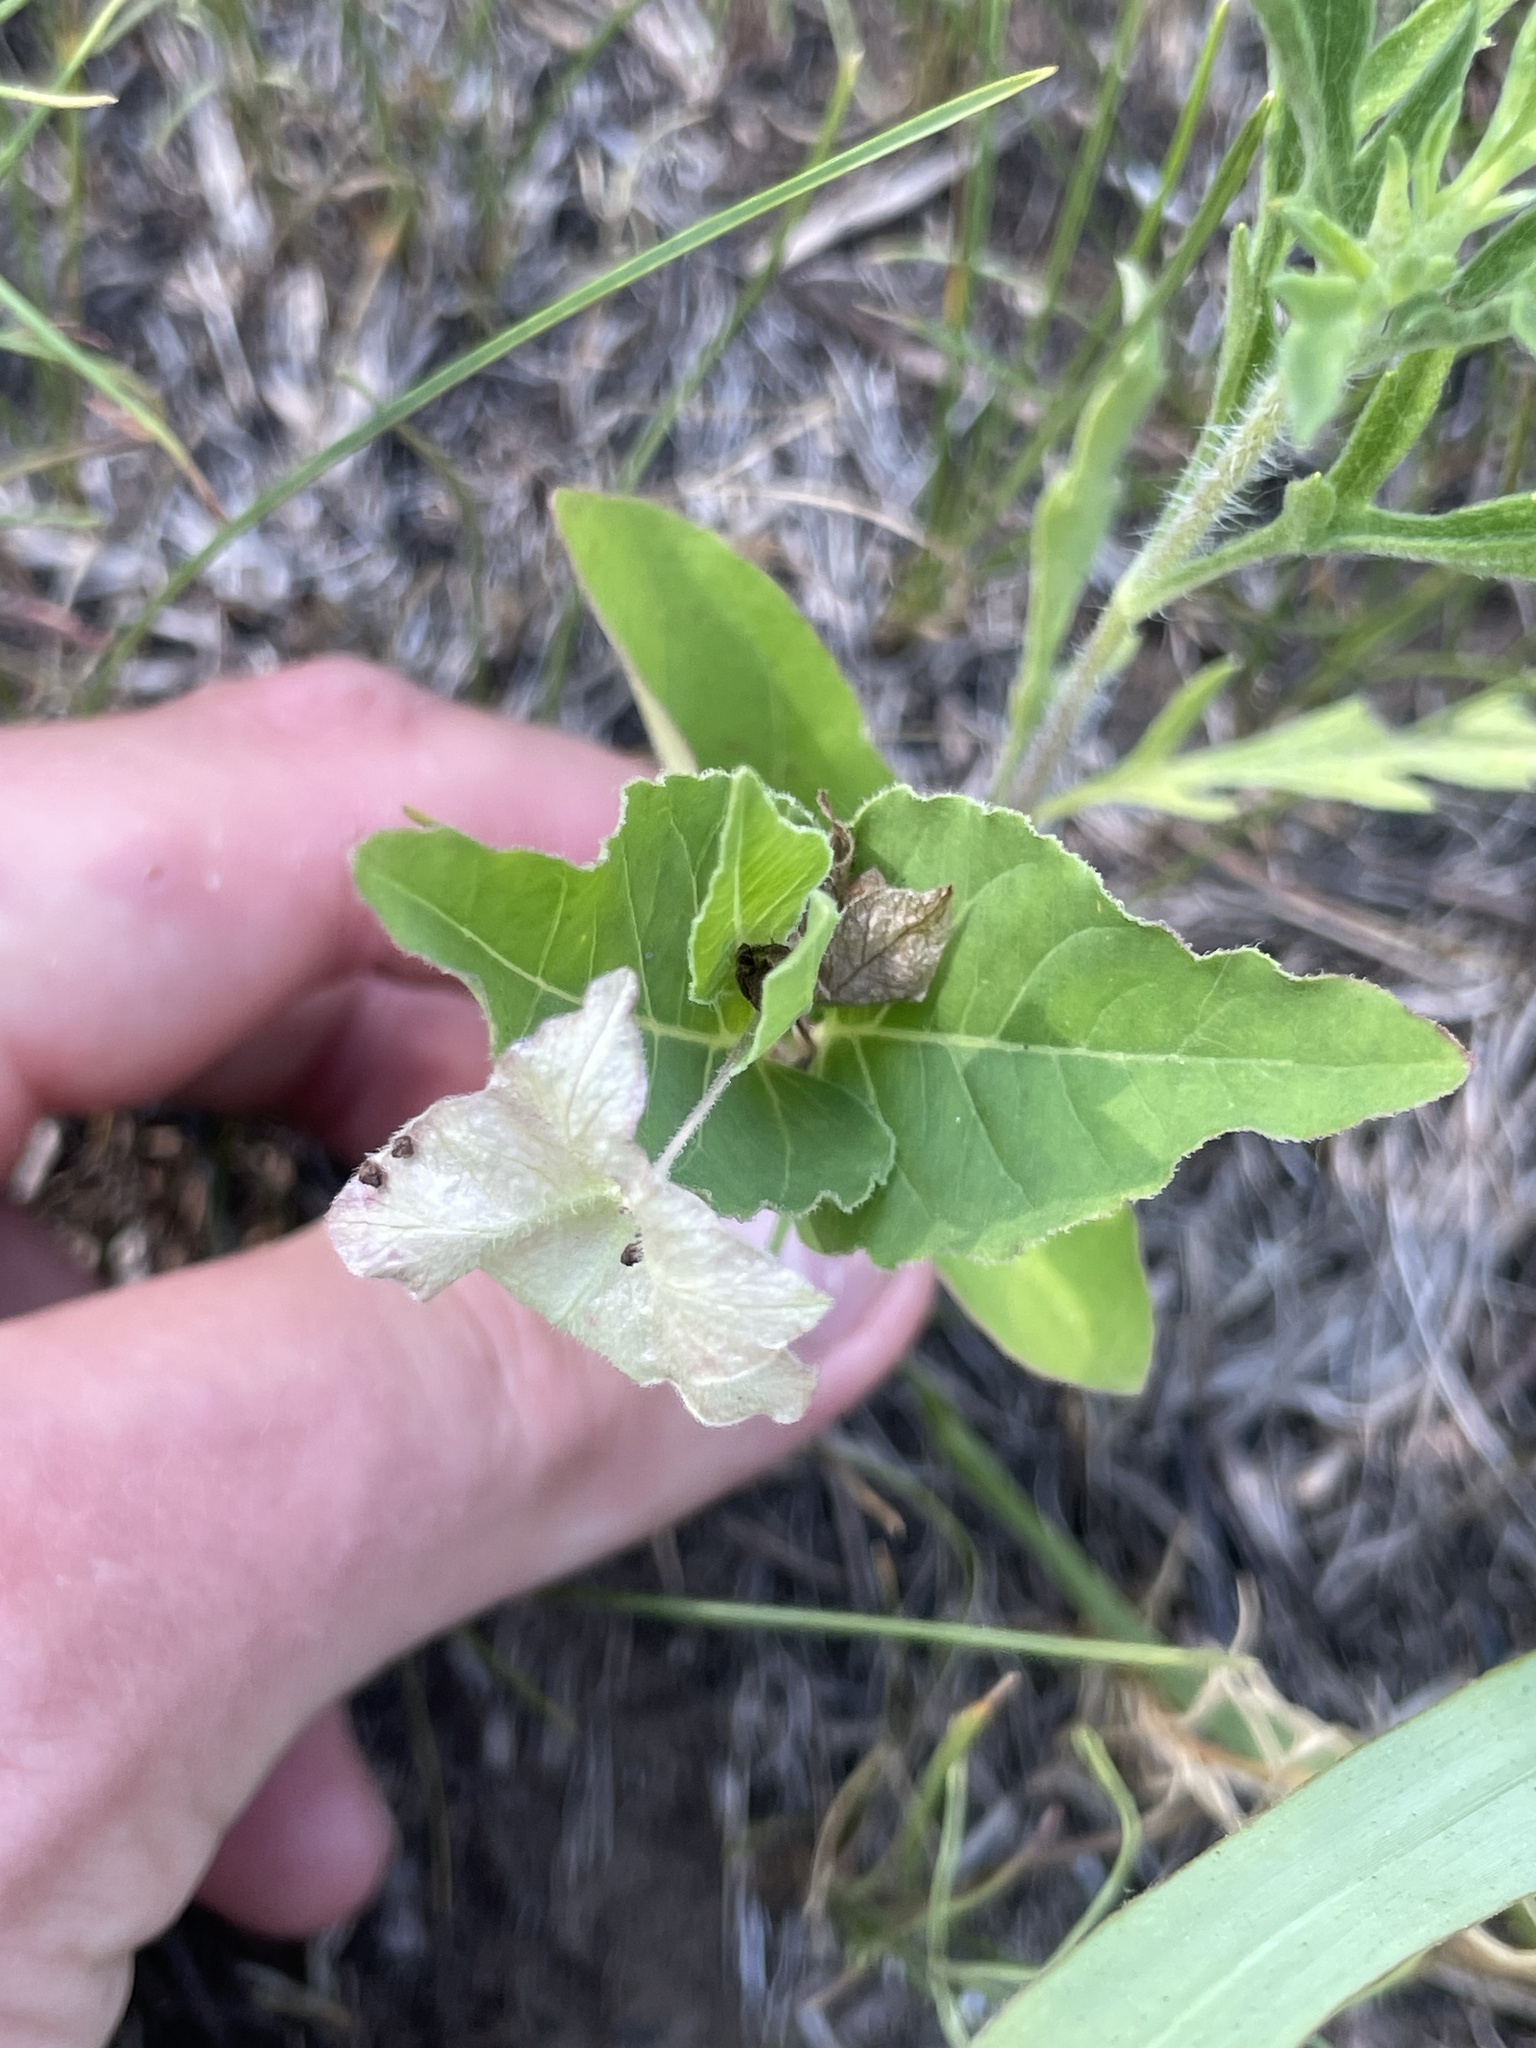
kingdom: Plantae
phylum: Tracheophyta
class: Magnoliopsida
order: Caryophyllales
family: Nyctaginaceae
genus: Mirabilis
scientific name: Mirabilis nyctaginea
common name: Umbrella wort
